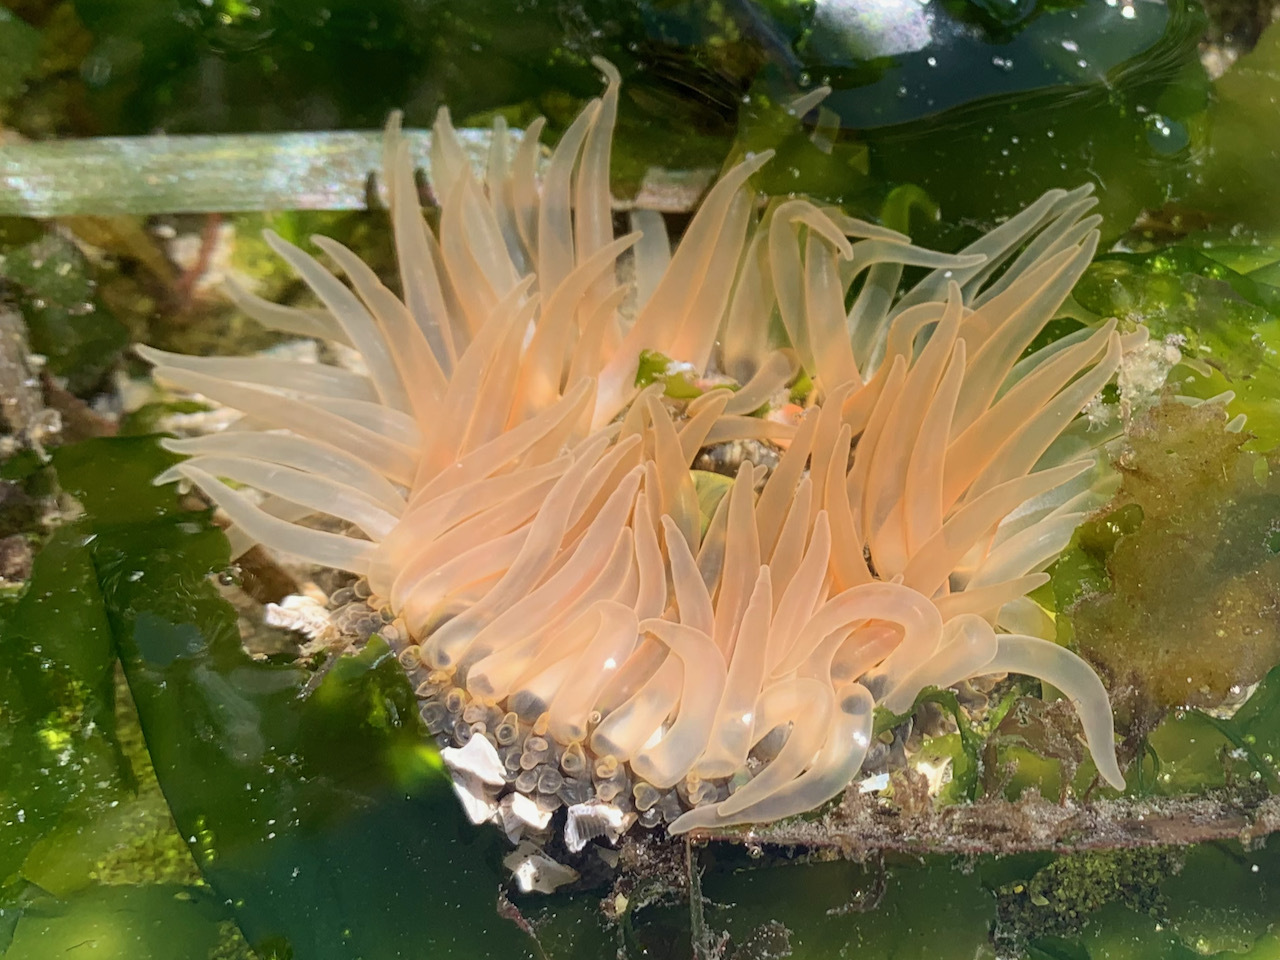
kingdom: Animalia
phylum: Cnidaria
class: Anthozoa
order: Actiniaria
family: Actiniidae
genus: Anthopleura
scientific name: Anthopleura artemisia
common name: Buried sea anemone
